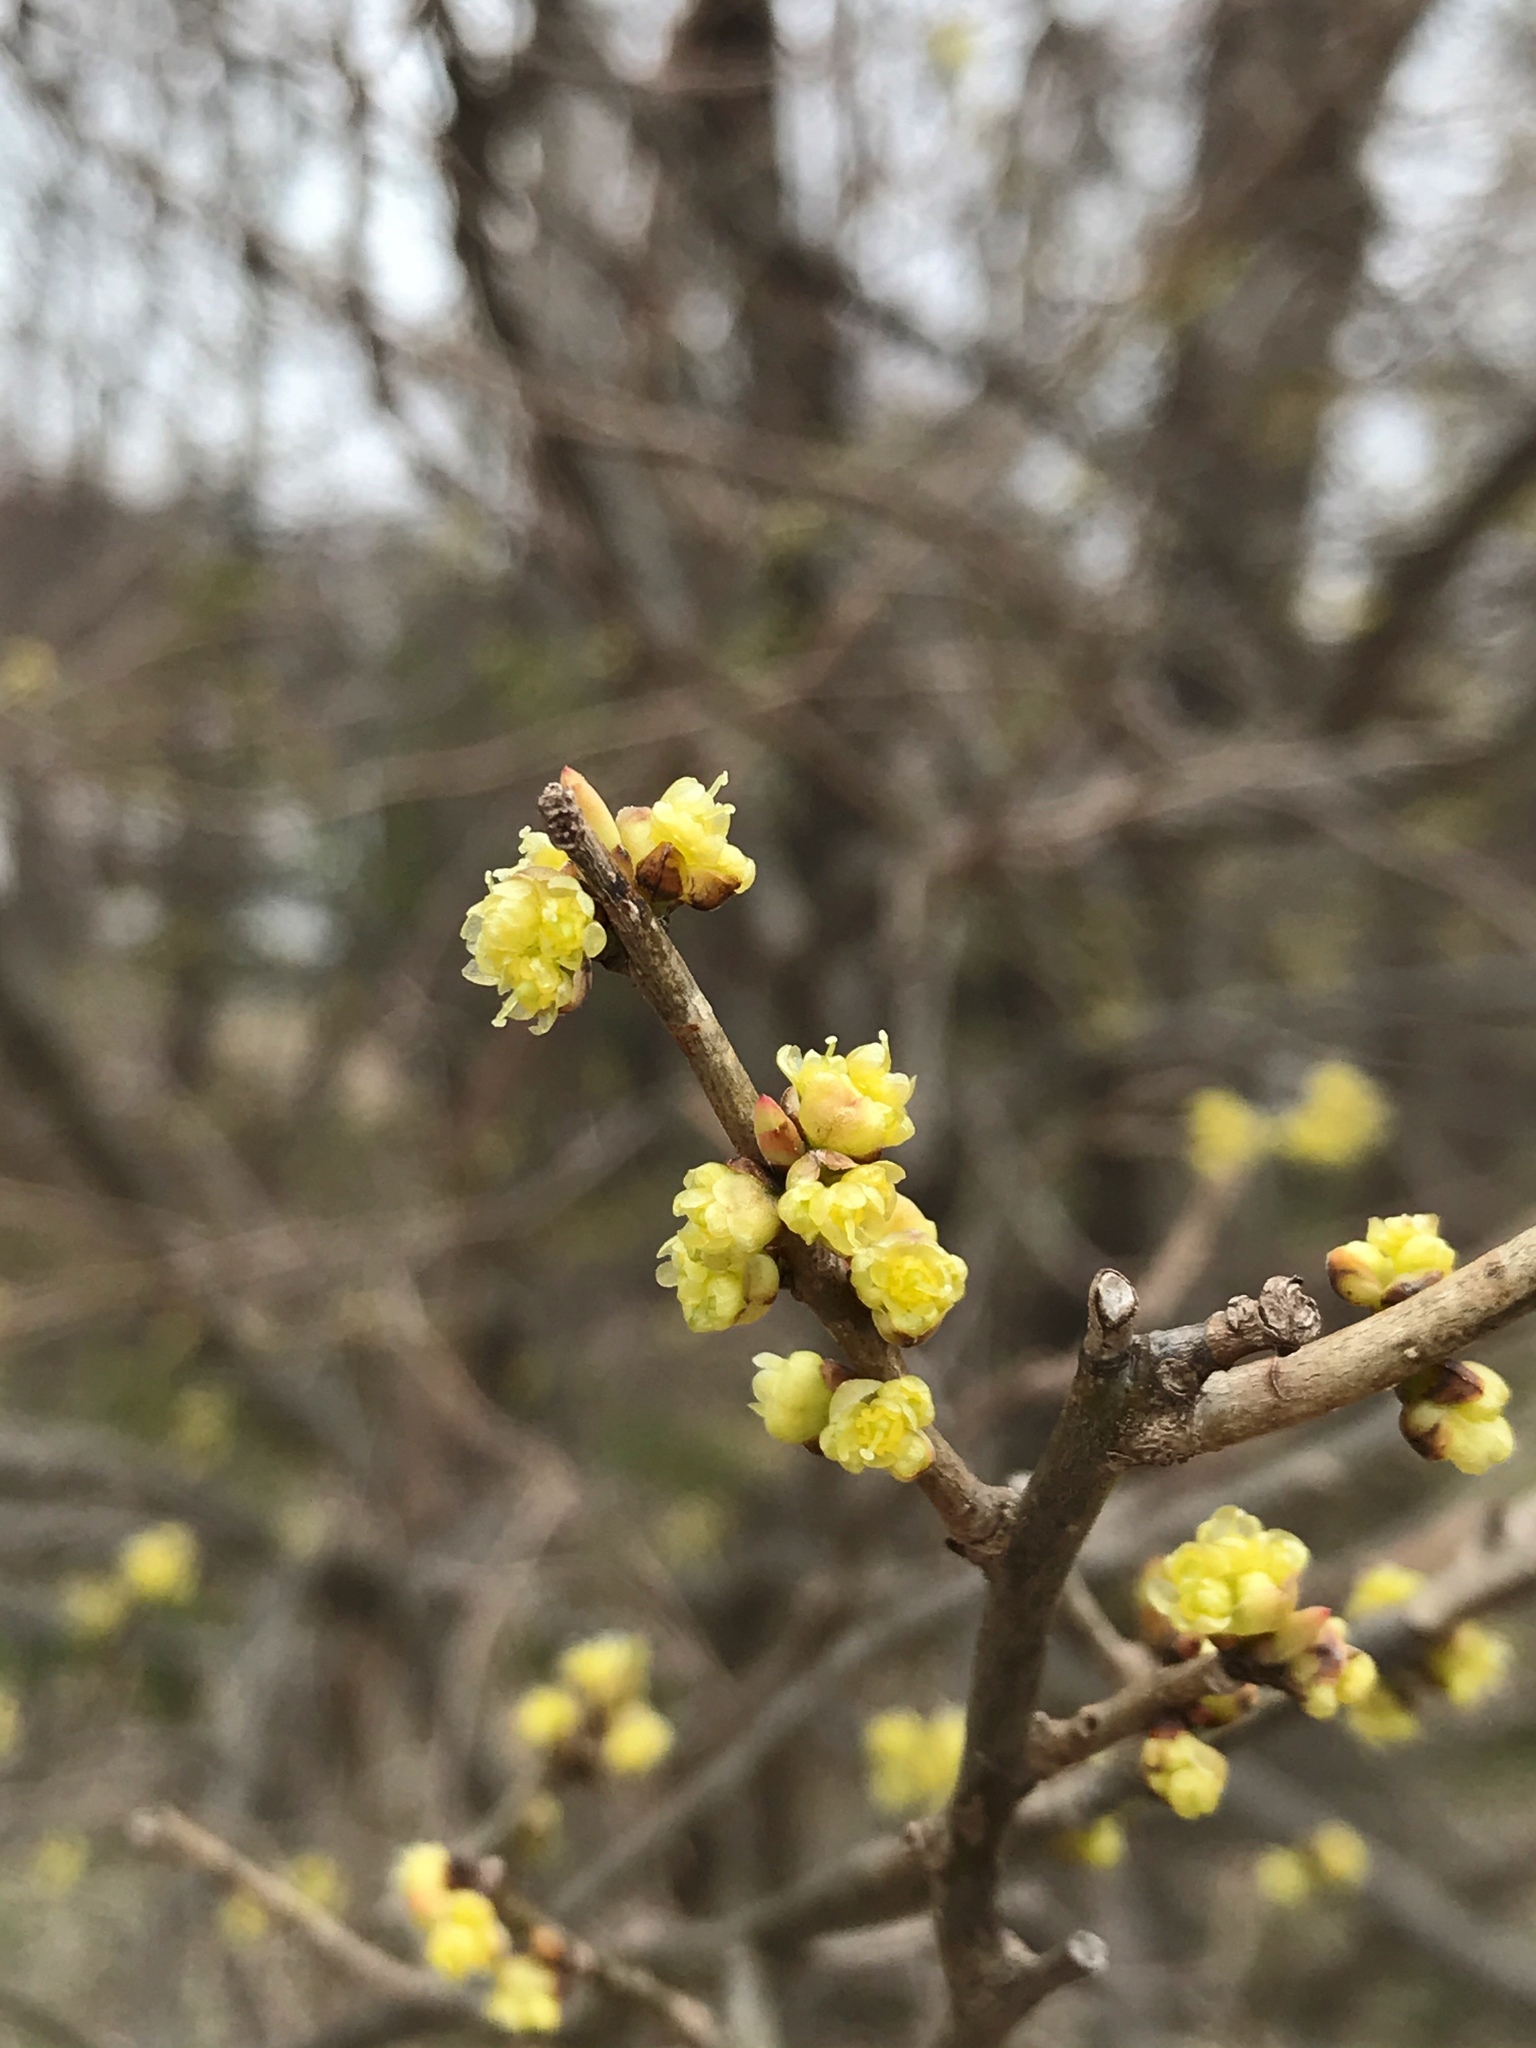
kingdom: Plantae
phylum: Tracheophyta
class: Magnoliopsida
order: Laurales
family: Lauraceae
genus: Lindera
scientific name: Lindera benzoin
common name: Spicebush
